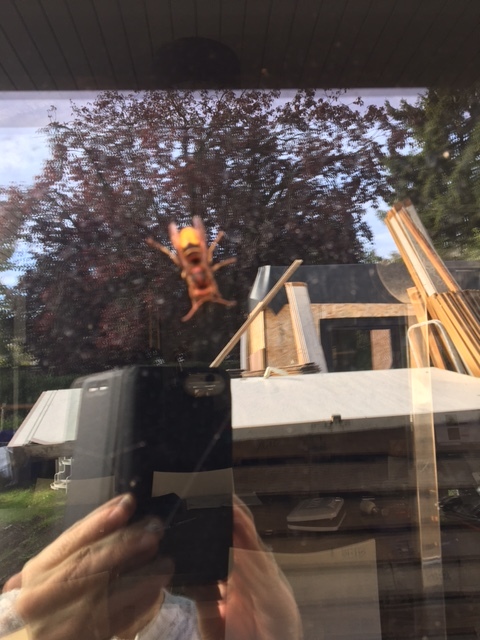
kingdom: Animalia
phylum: Arthropoda
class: Insecta
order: Hymenoptera
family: Vespidae
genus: Vespa
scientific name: Vespa crabro
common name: Hornet
